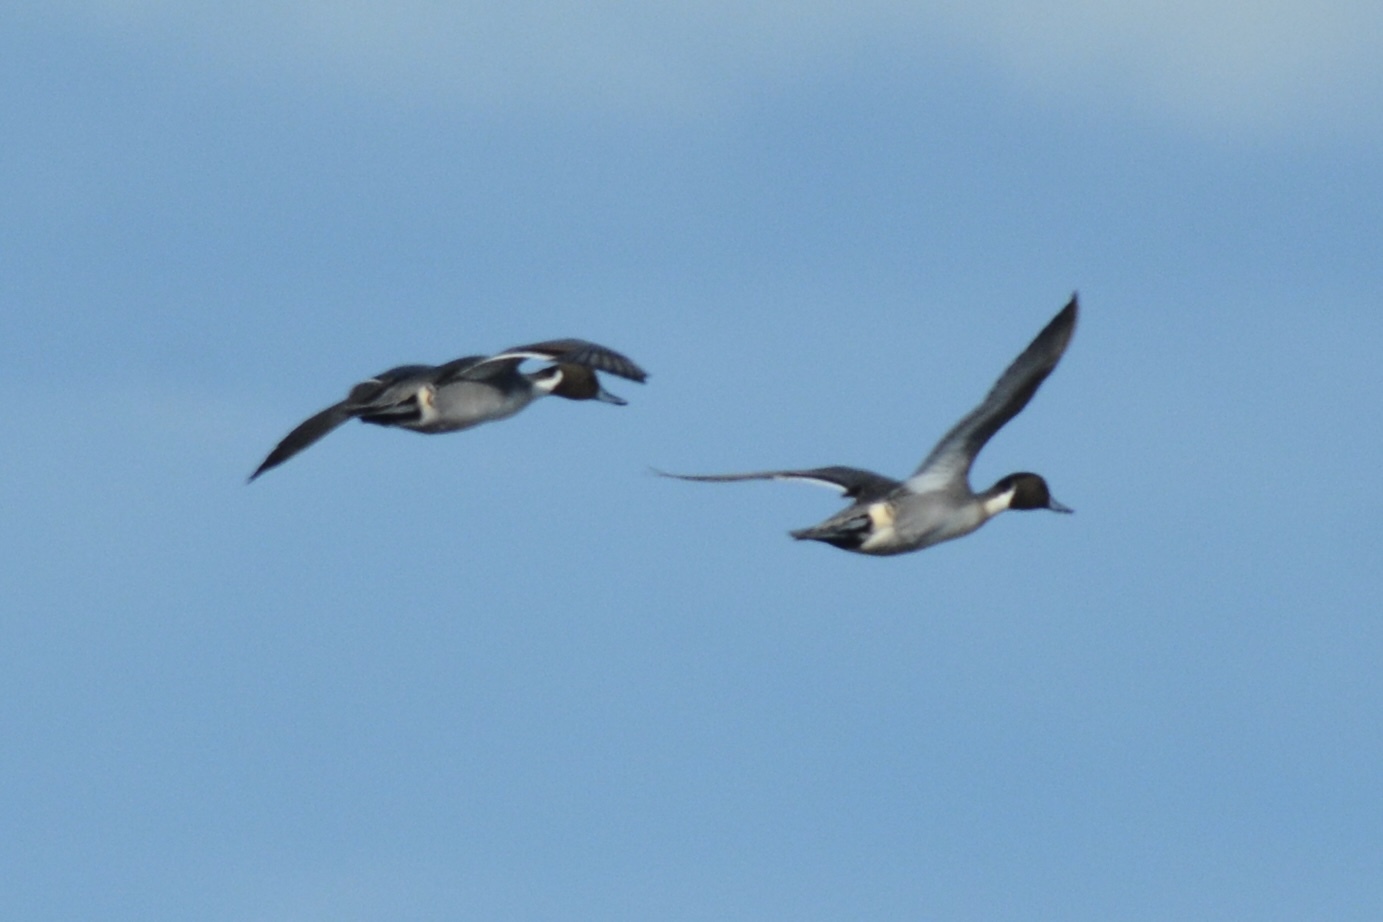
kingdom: Animalia
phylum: Chordata
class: Aves
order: Anseriformes
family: Anatidae
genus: Anas
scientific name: Anas acuta
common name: Northern pintail
